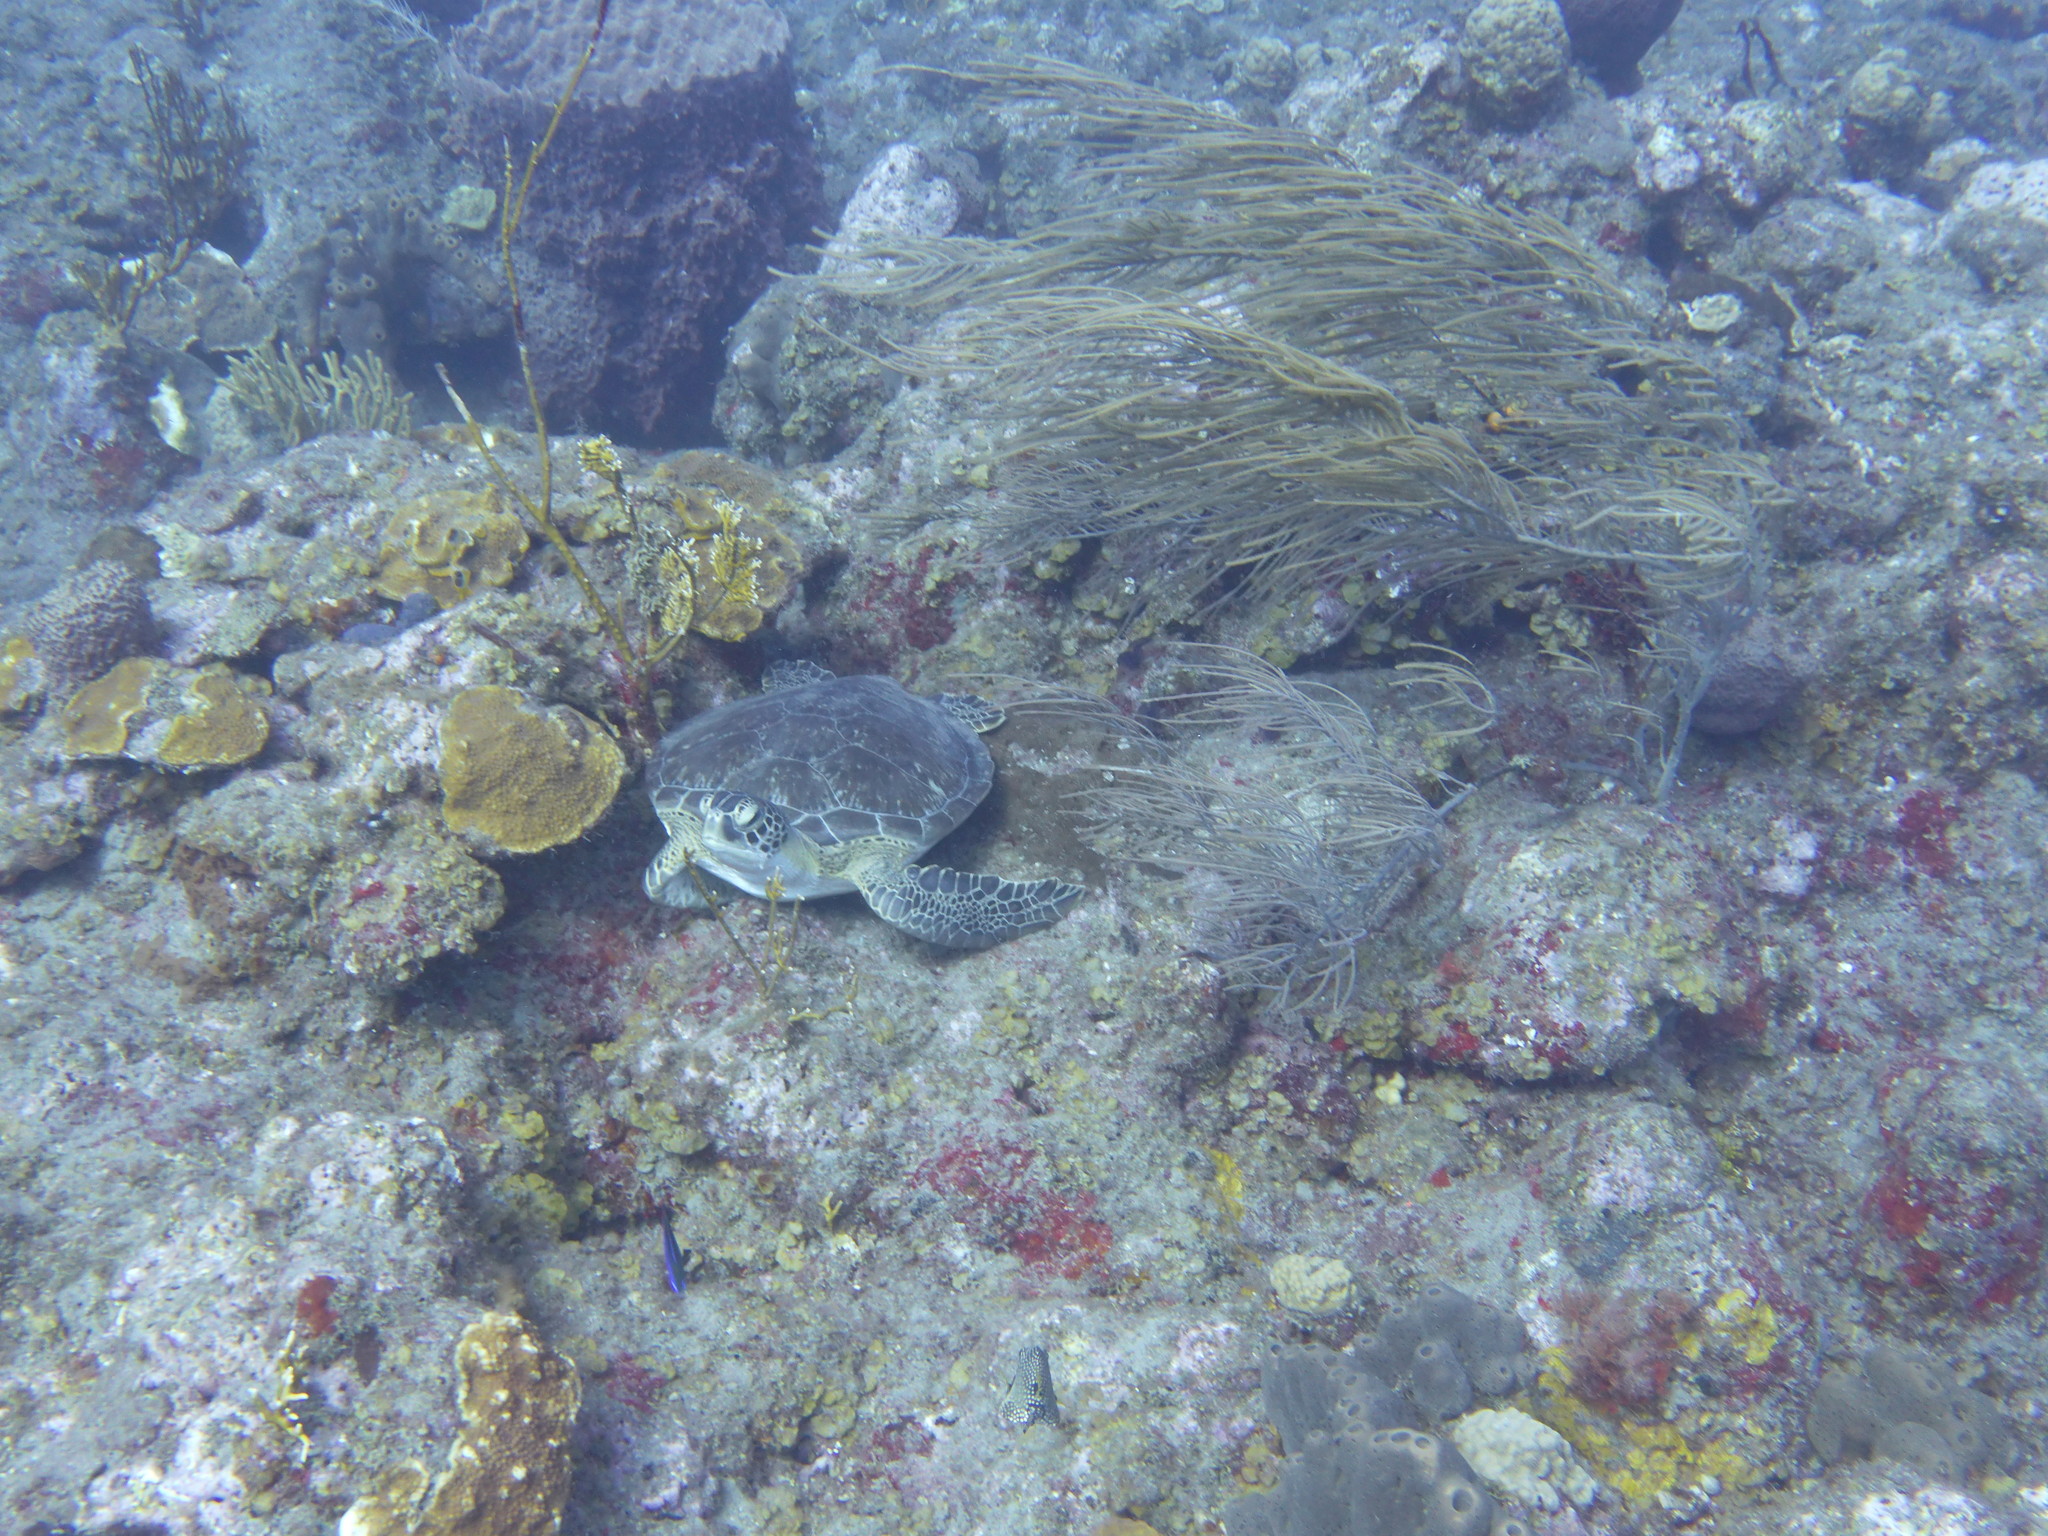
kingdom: Animalia
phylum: Chordata
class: Testudines
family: Cheloniidae
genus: Chelonia
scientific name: Chelonia mydas
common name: Green turtle
